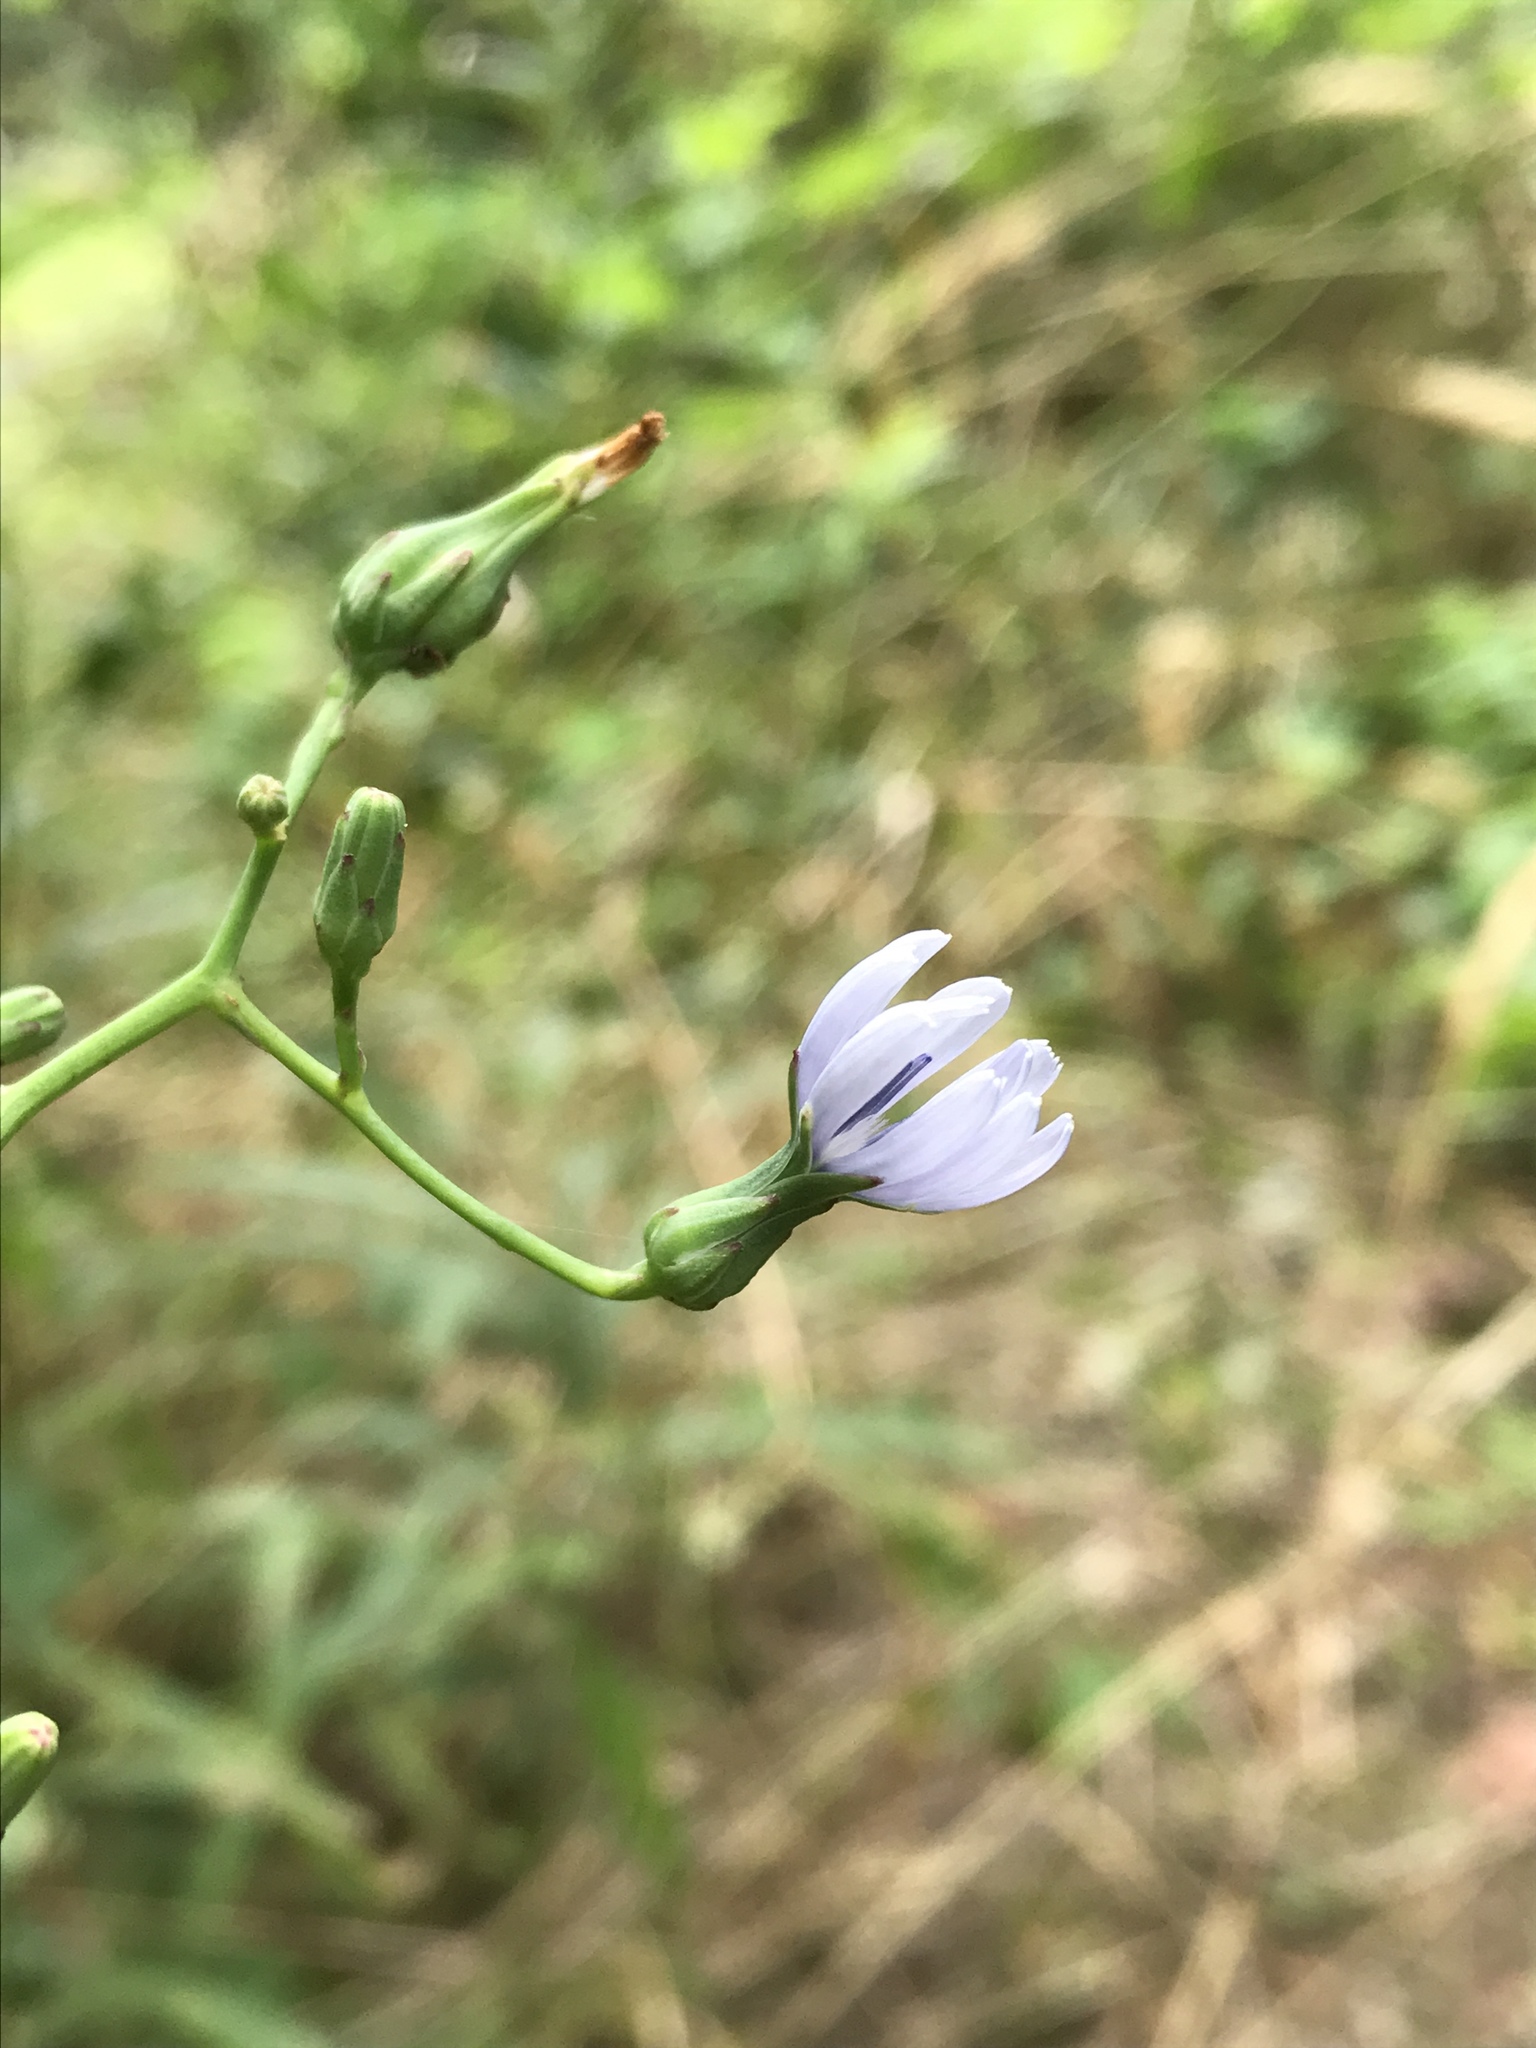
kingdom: Plantae
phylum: Tracheophyta
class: Magnoliopsida
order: Asterales
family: Asteraceae
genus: Lactuca
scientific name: Lactuca floridana
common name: Woodland lettuce
